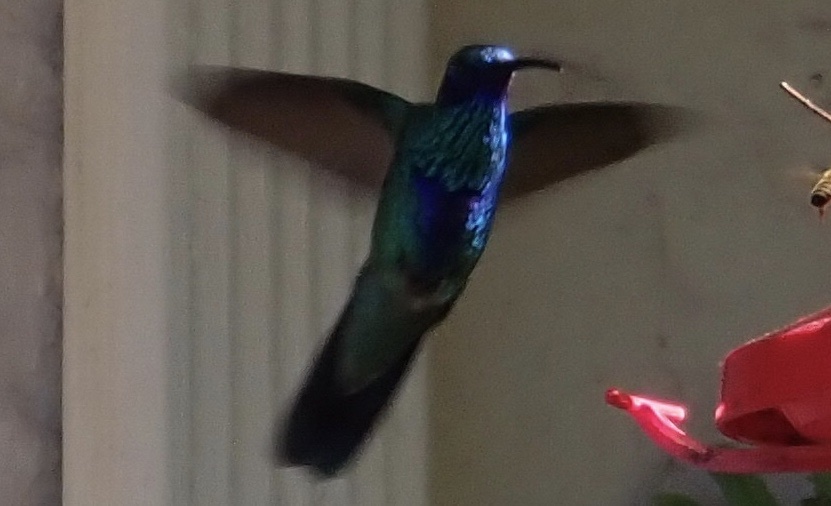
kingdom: Animalia
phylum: Chordata
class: Aves
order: Apodiformes
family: Trochilidae
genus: Colibri
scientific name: Colibri coruscans
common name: Sparkling violetear
